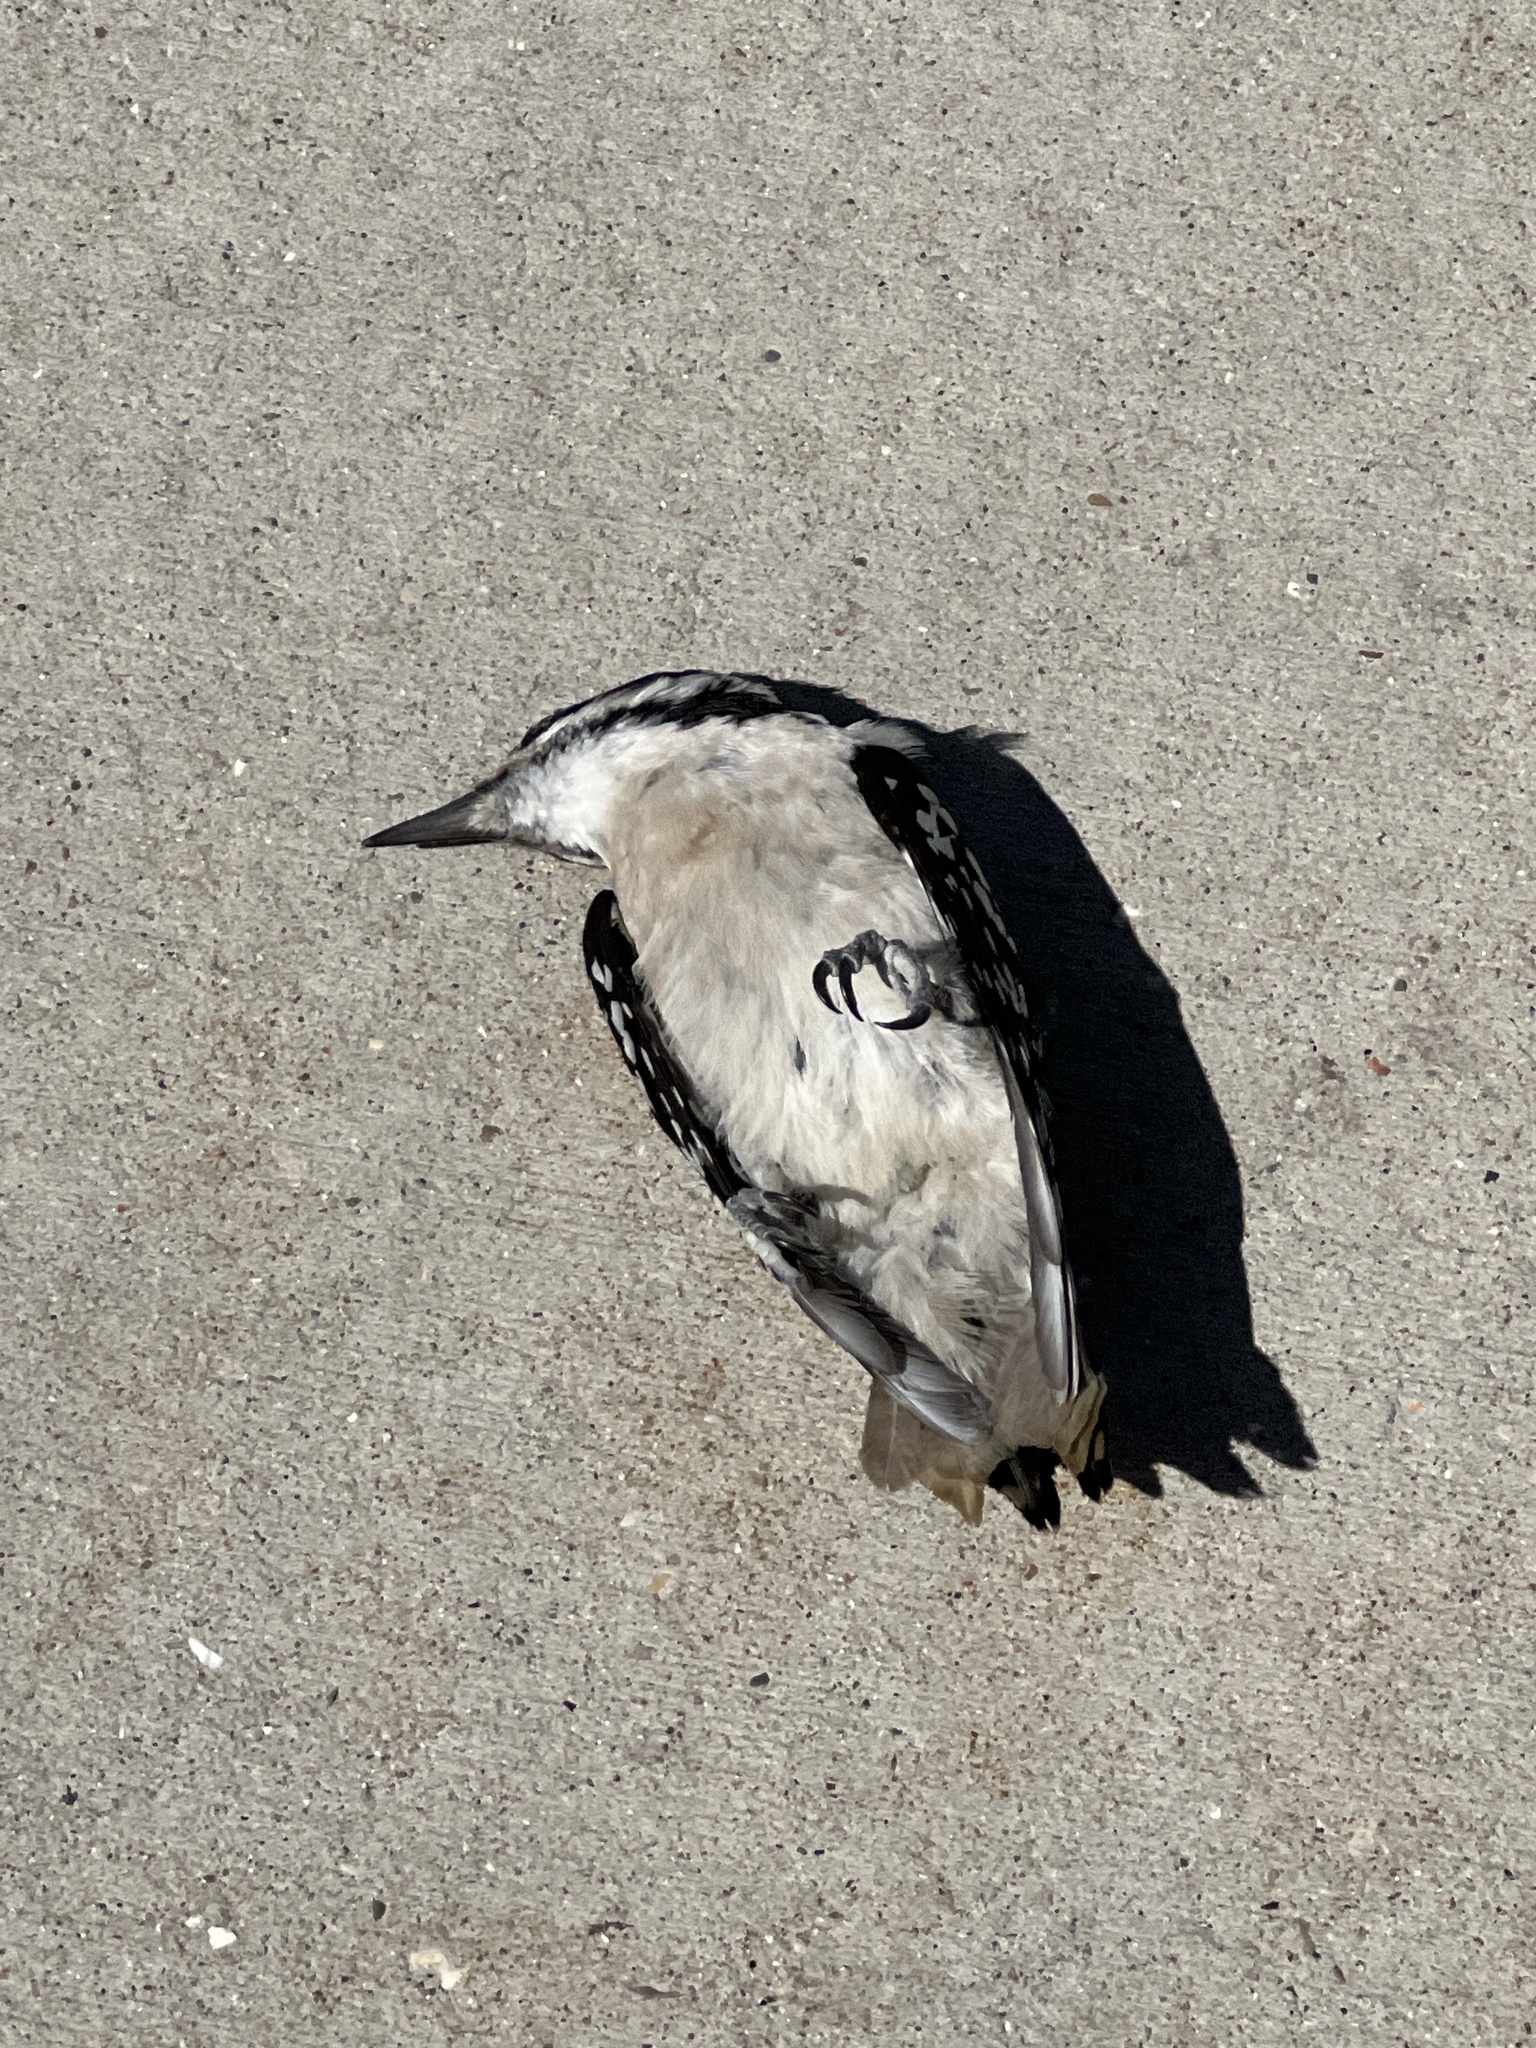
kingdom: Animalia
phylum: Chordata
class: Aves
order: Piciformes
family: Picidae
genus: Dryobates
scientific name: Dryobates pubescens
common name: Downy woodpecker
